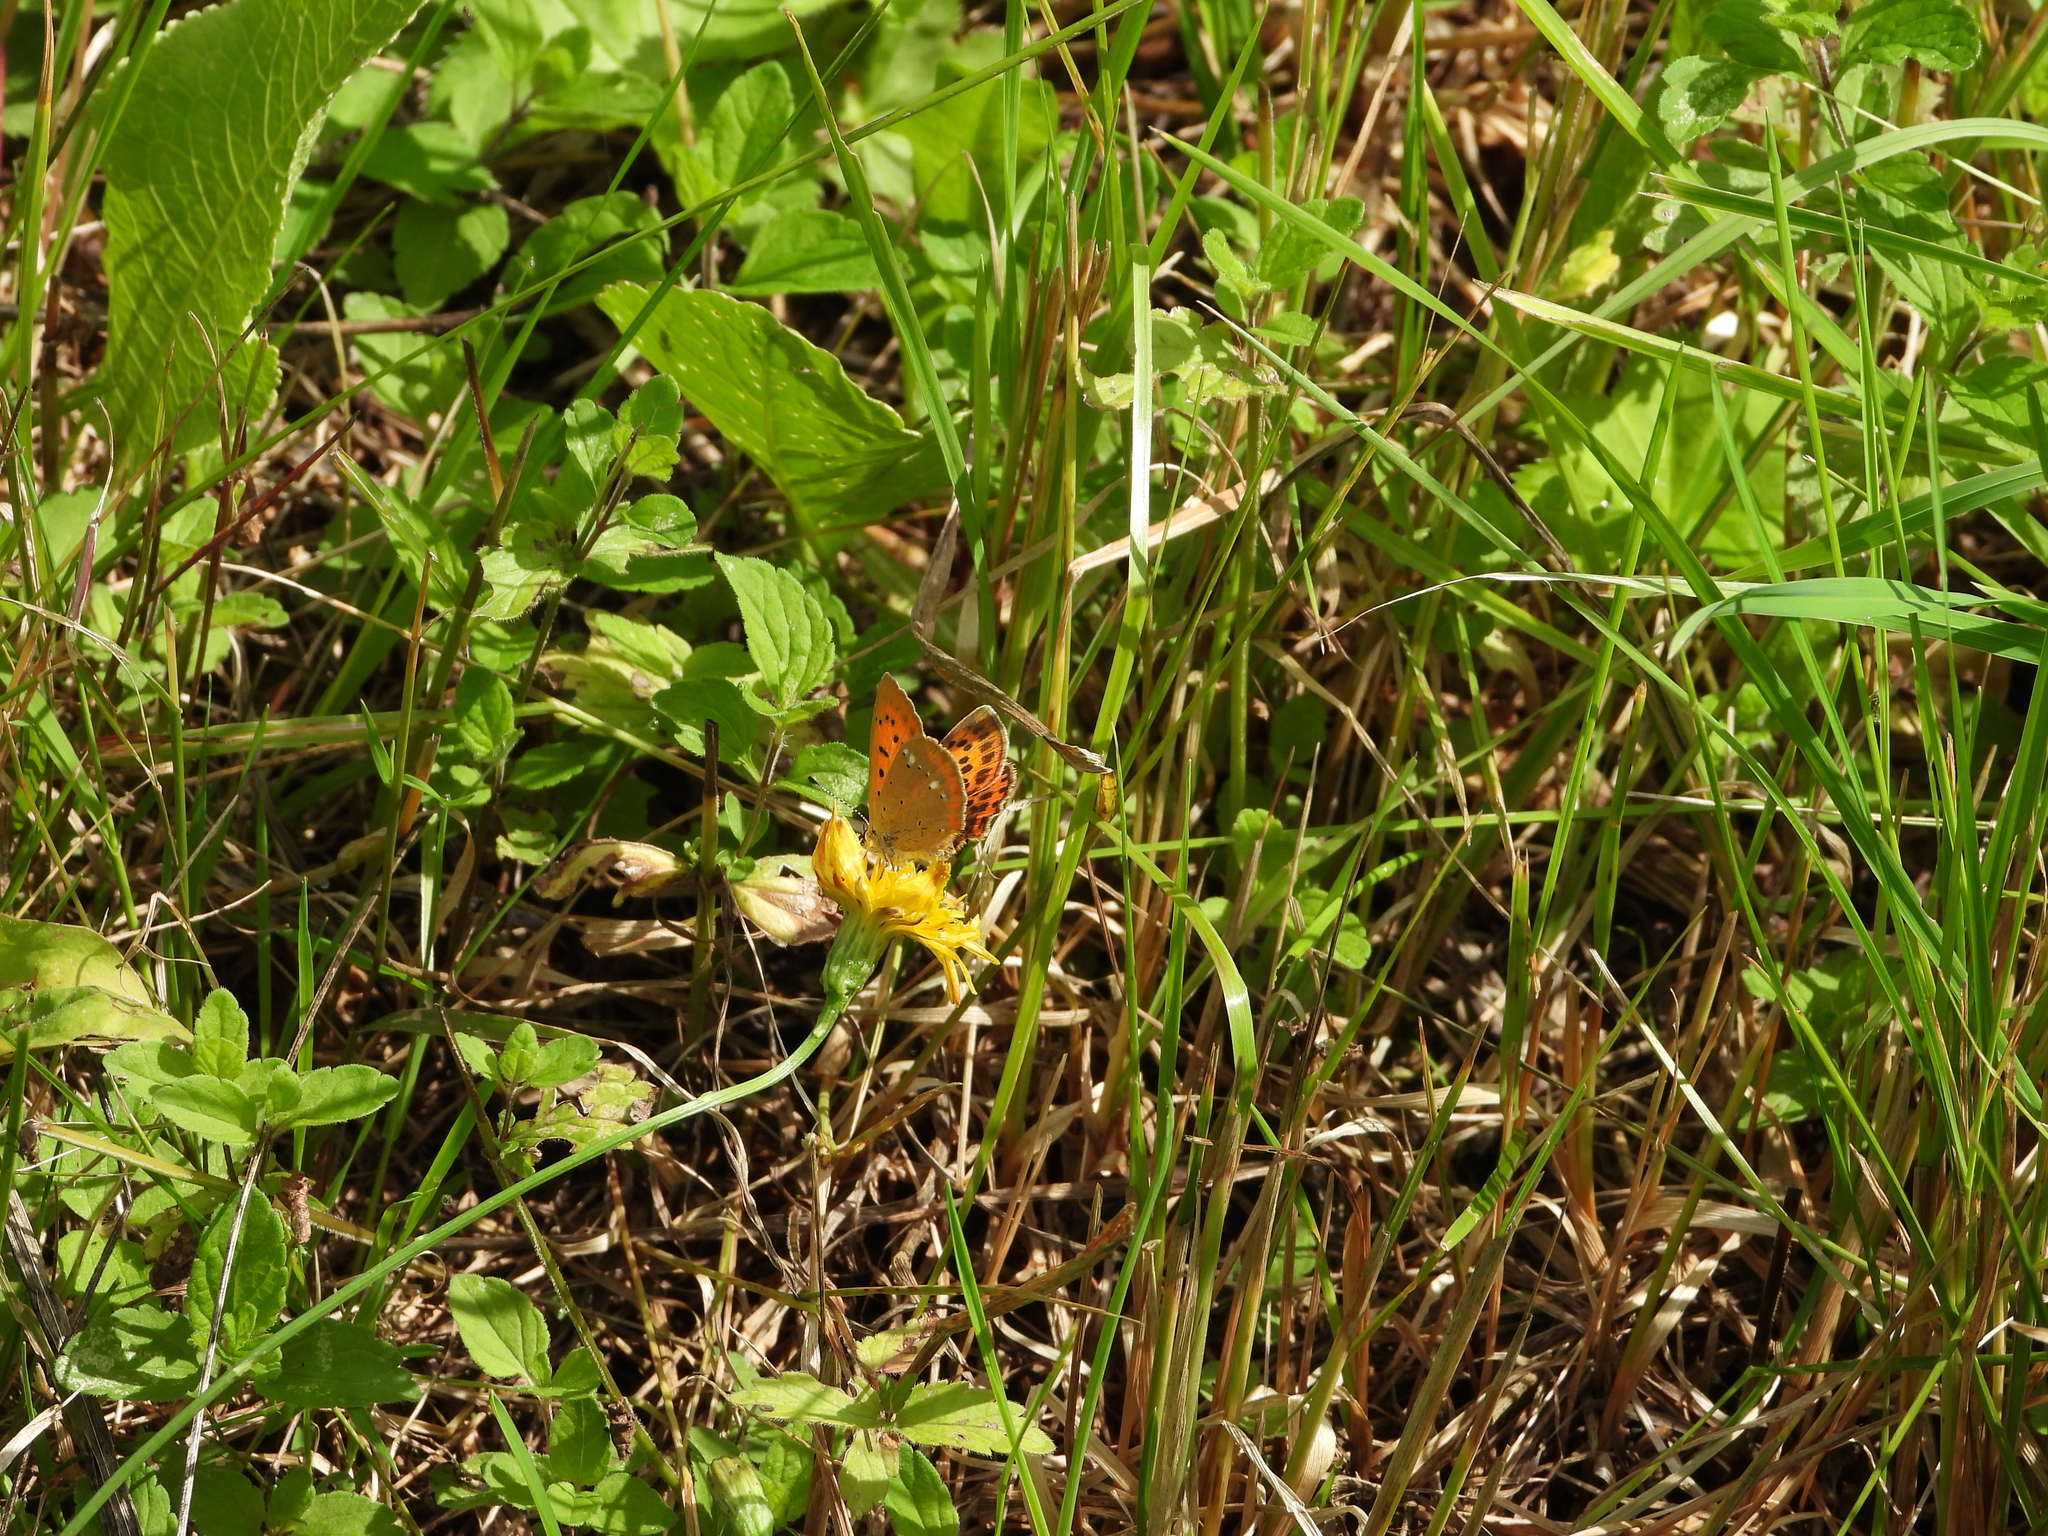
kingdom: Animalia
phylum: Arthropoda
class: Insecta
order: Lepidoptera
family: Lycaenidae
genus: Lycaena
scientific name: Lycaena virgaureae
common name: Scarce copper
